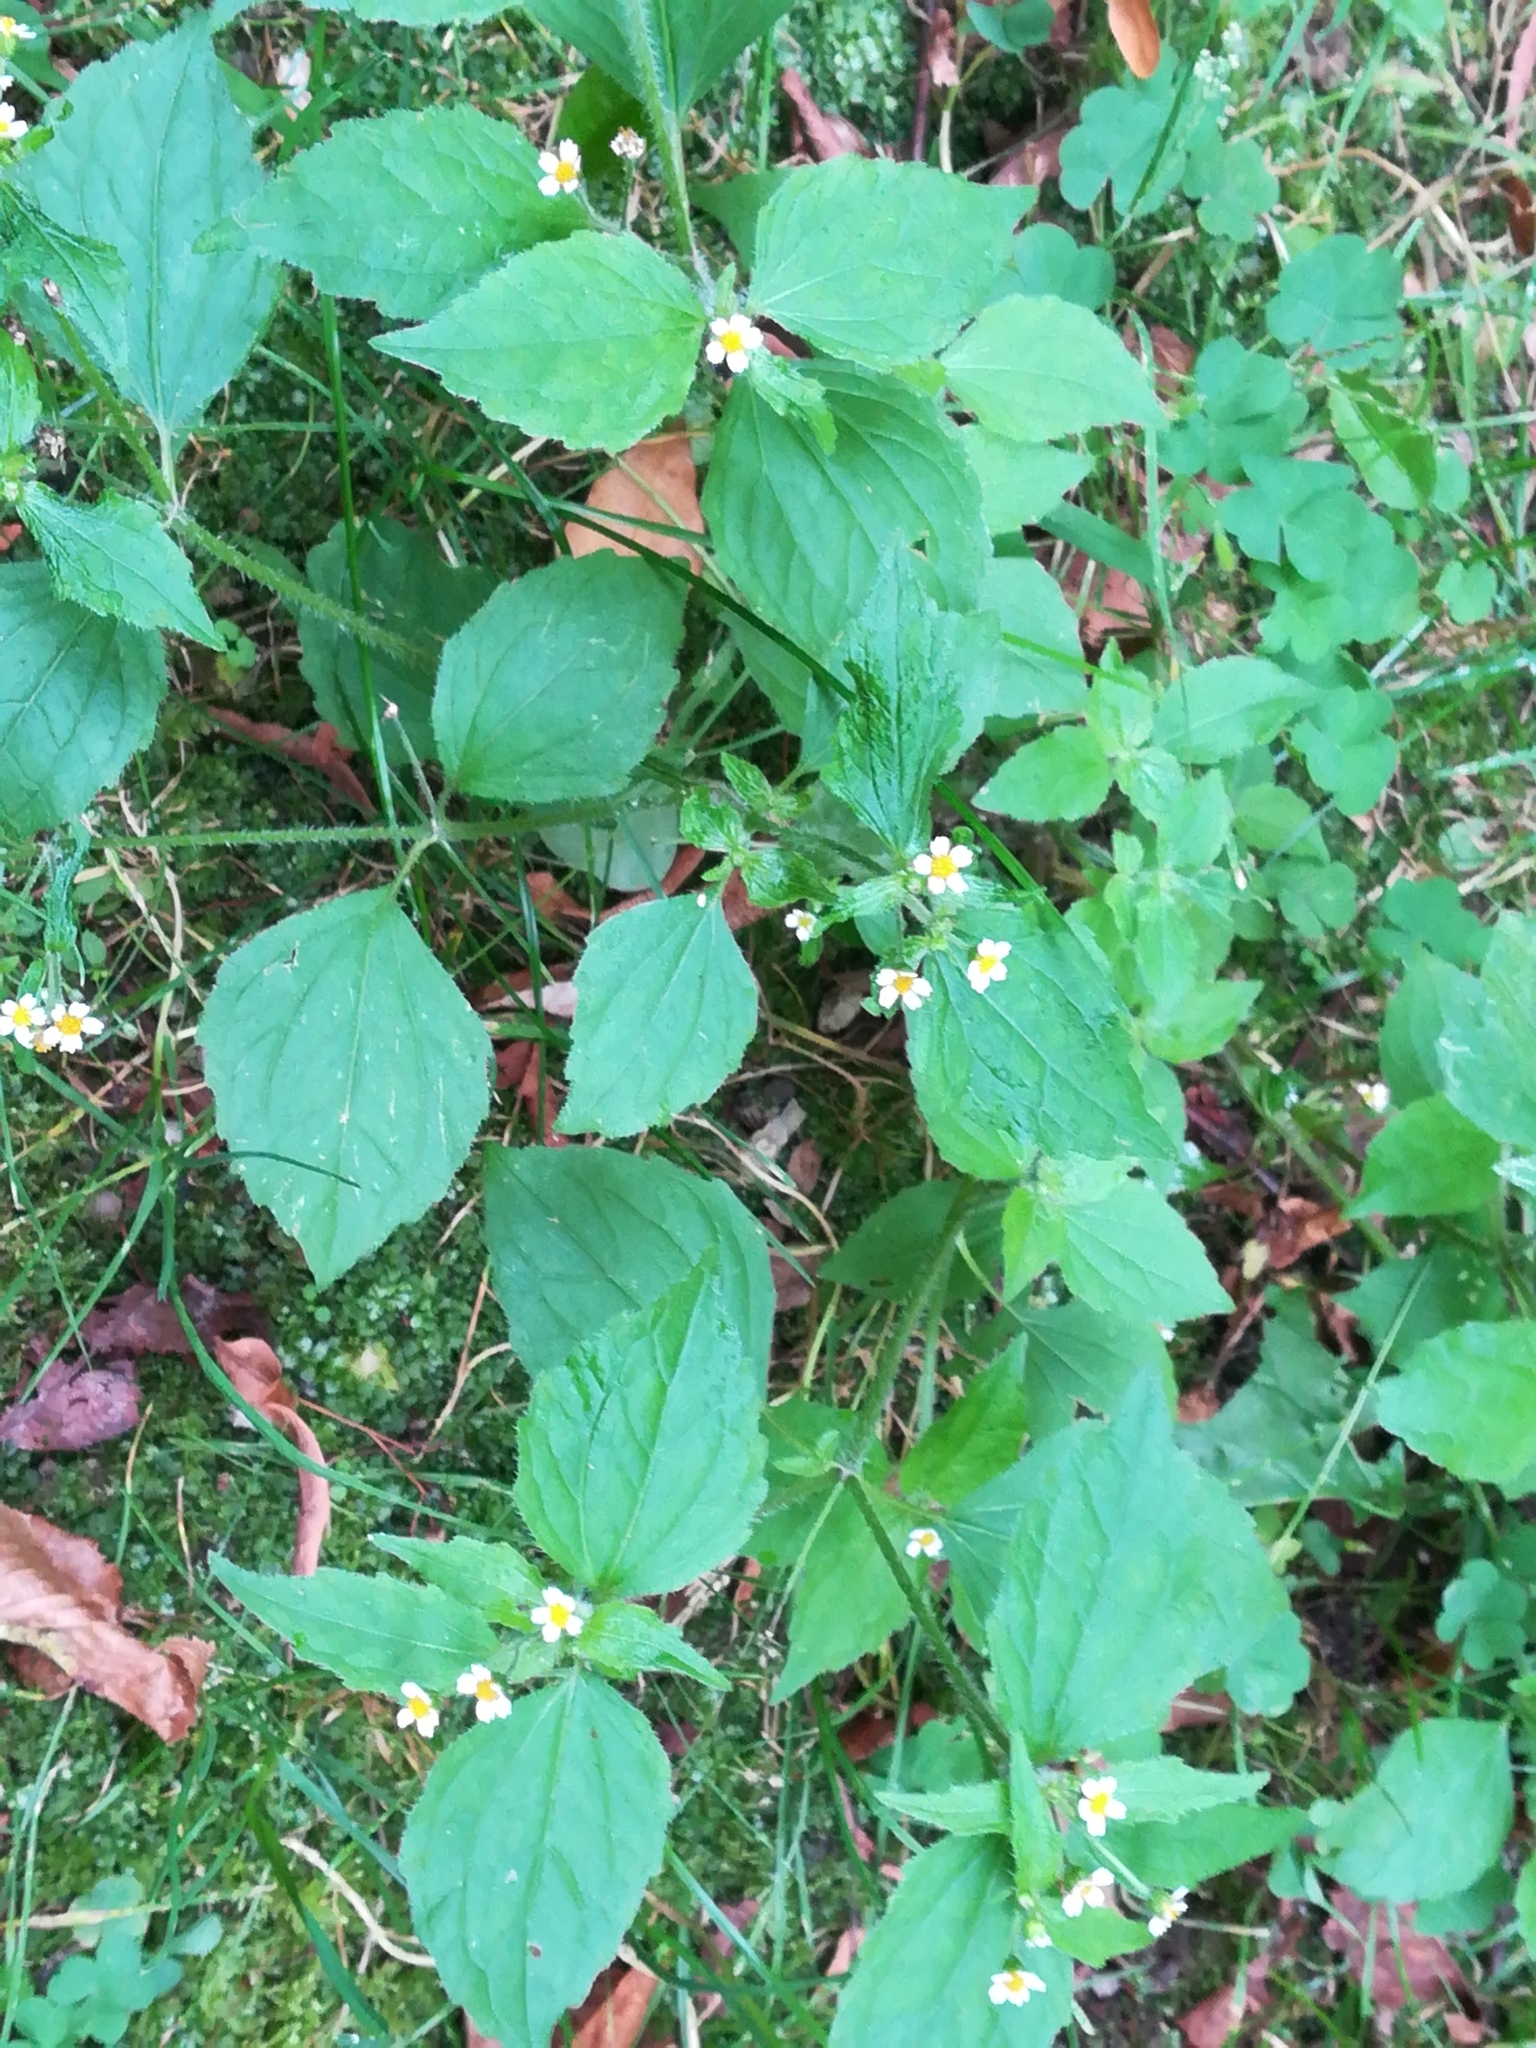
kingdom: Plantae
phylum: Tracheophyta
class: Magnoliopsida
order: Asterales
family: Asteraceae
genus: Galinsoga
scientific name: Galinsoga quadriradiata
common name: Shaggy soldier
